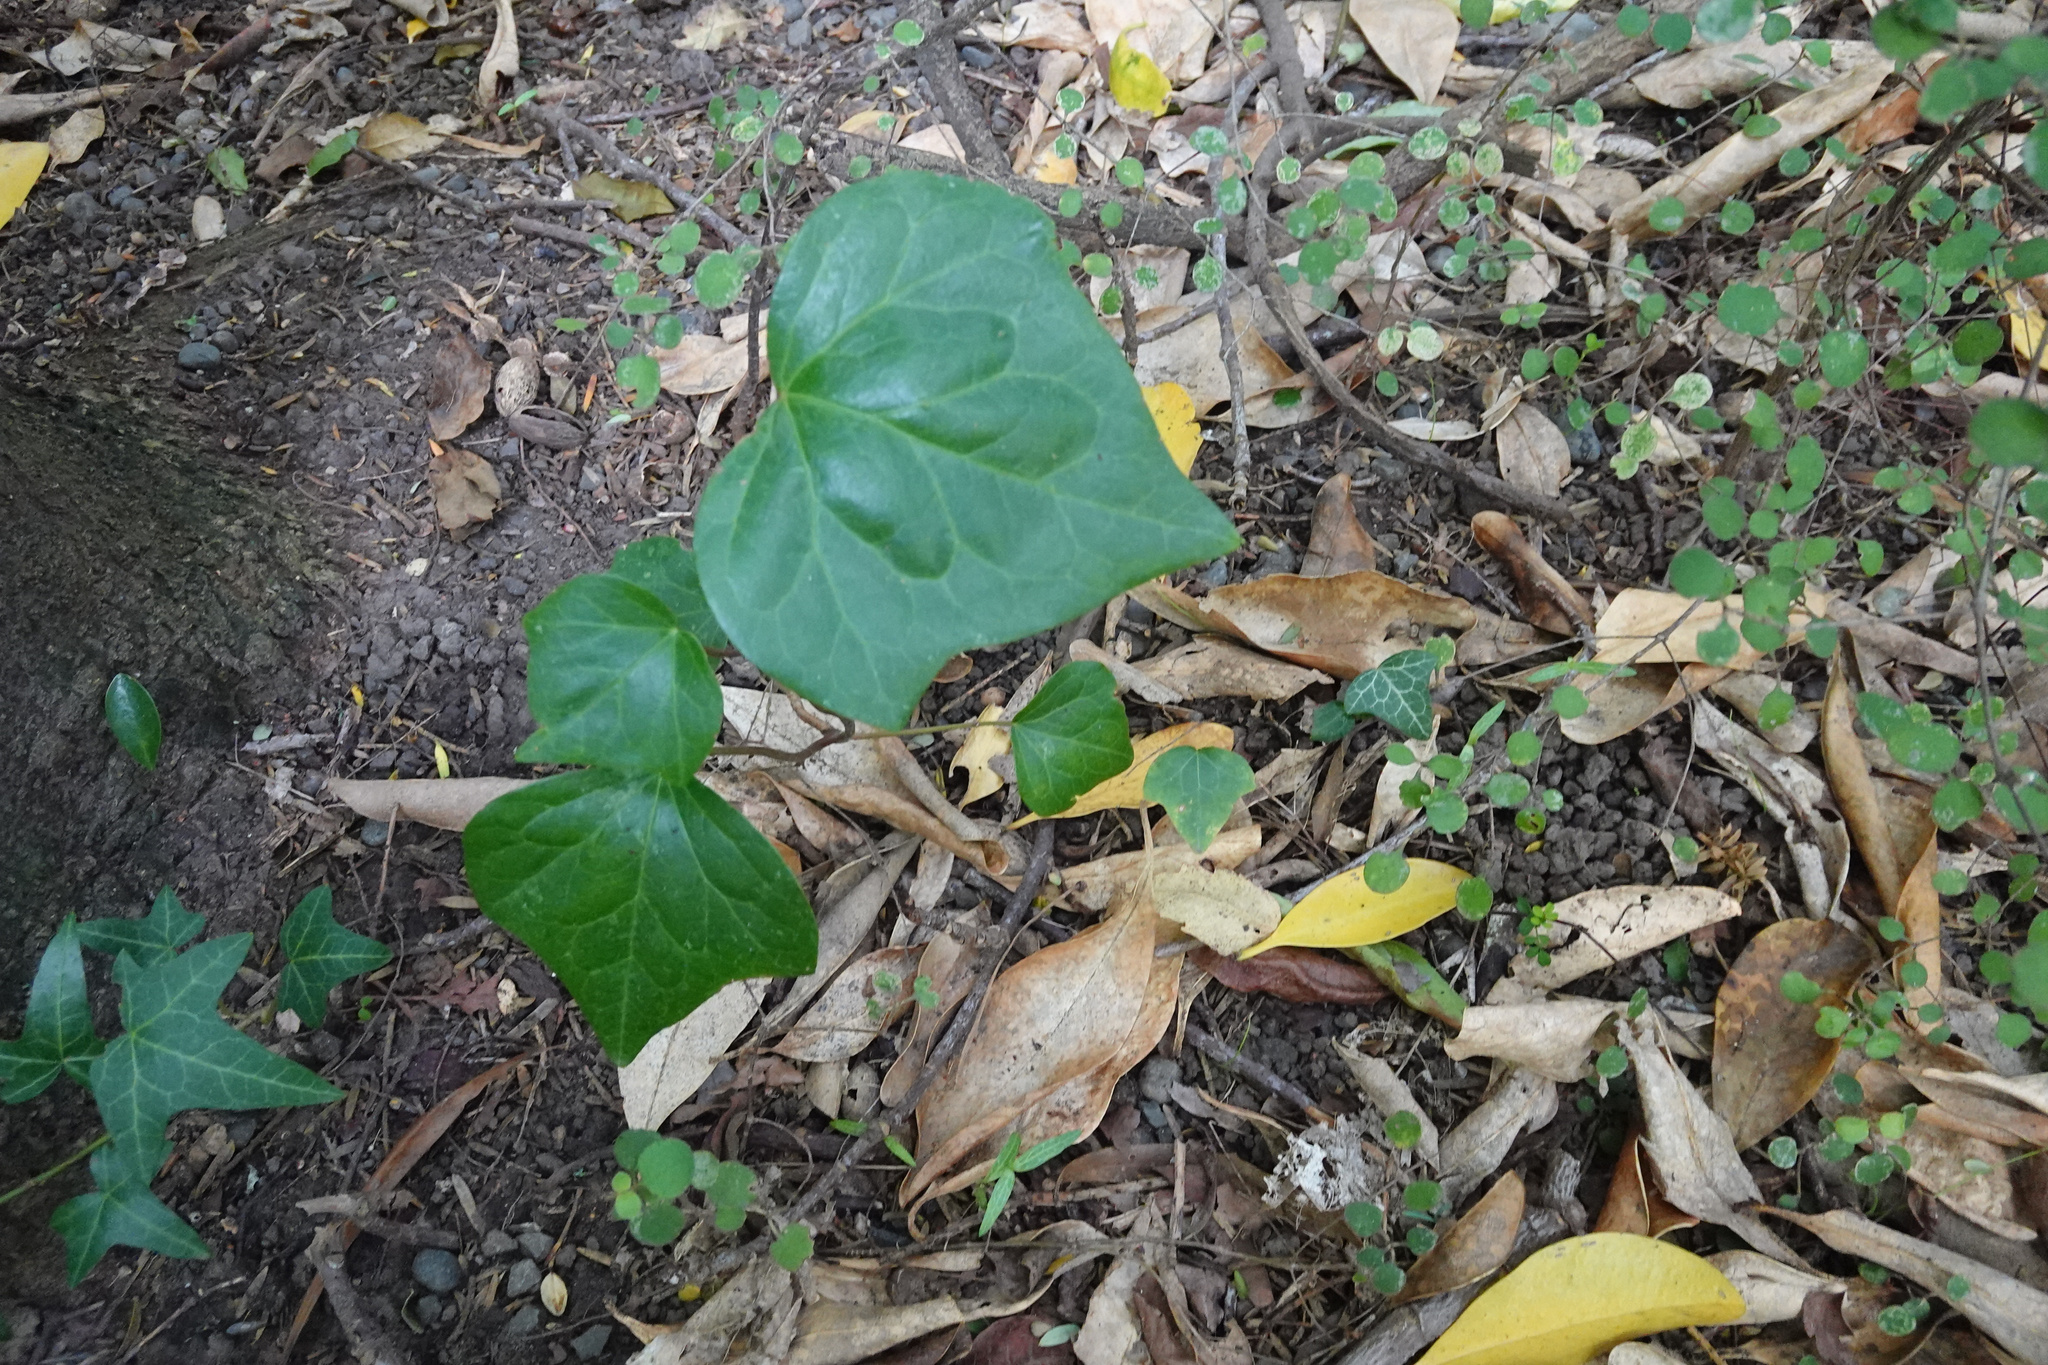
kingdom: Plantae
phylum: Tracheophyta
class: Magnoliopsida
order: Apiales
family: Araliaceae
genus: Hedera
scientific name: Hedera helix
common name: Ivy
